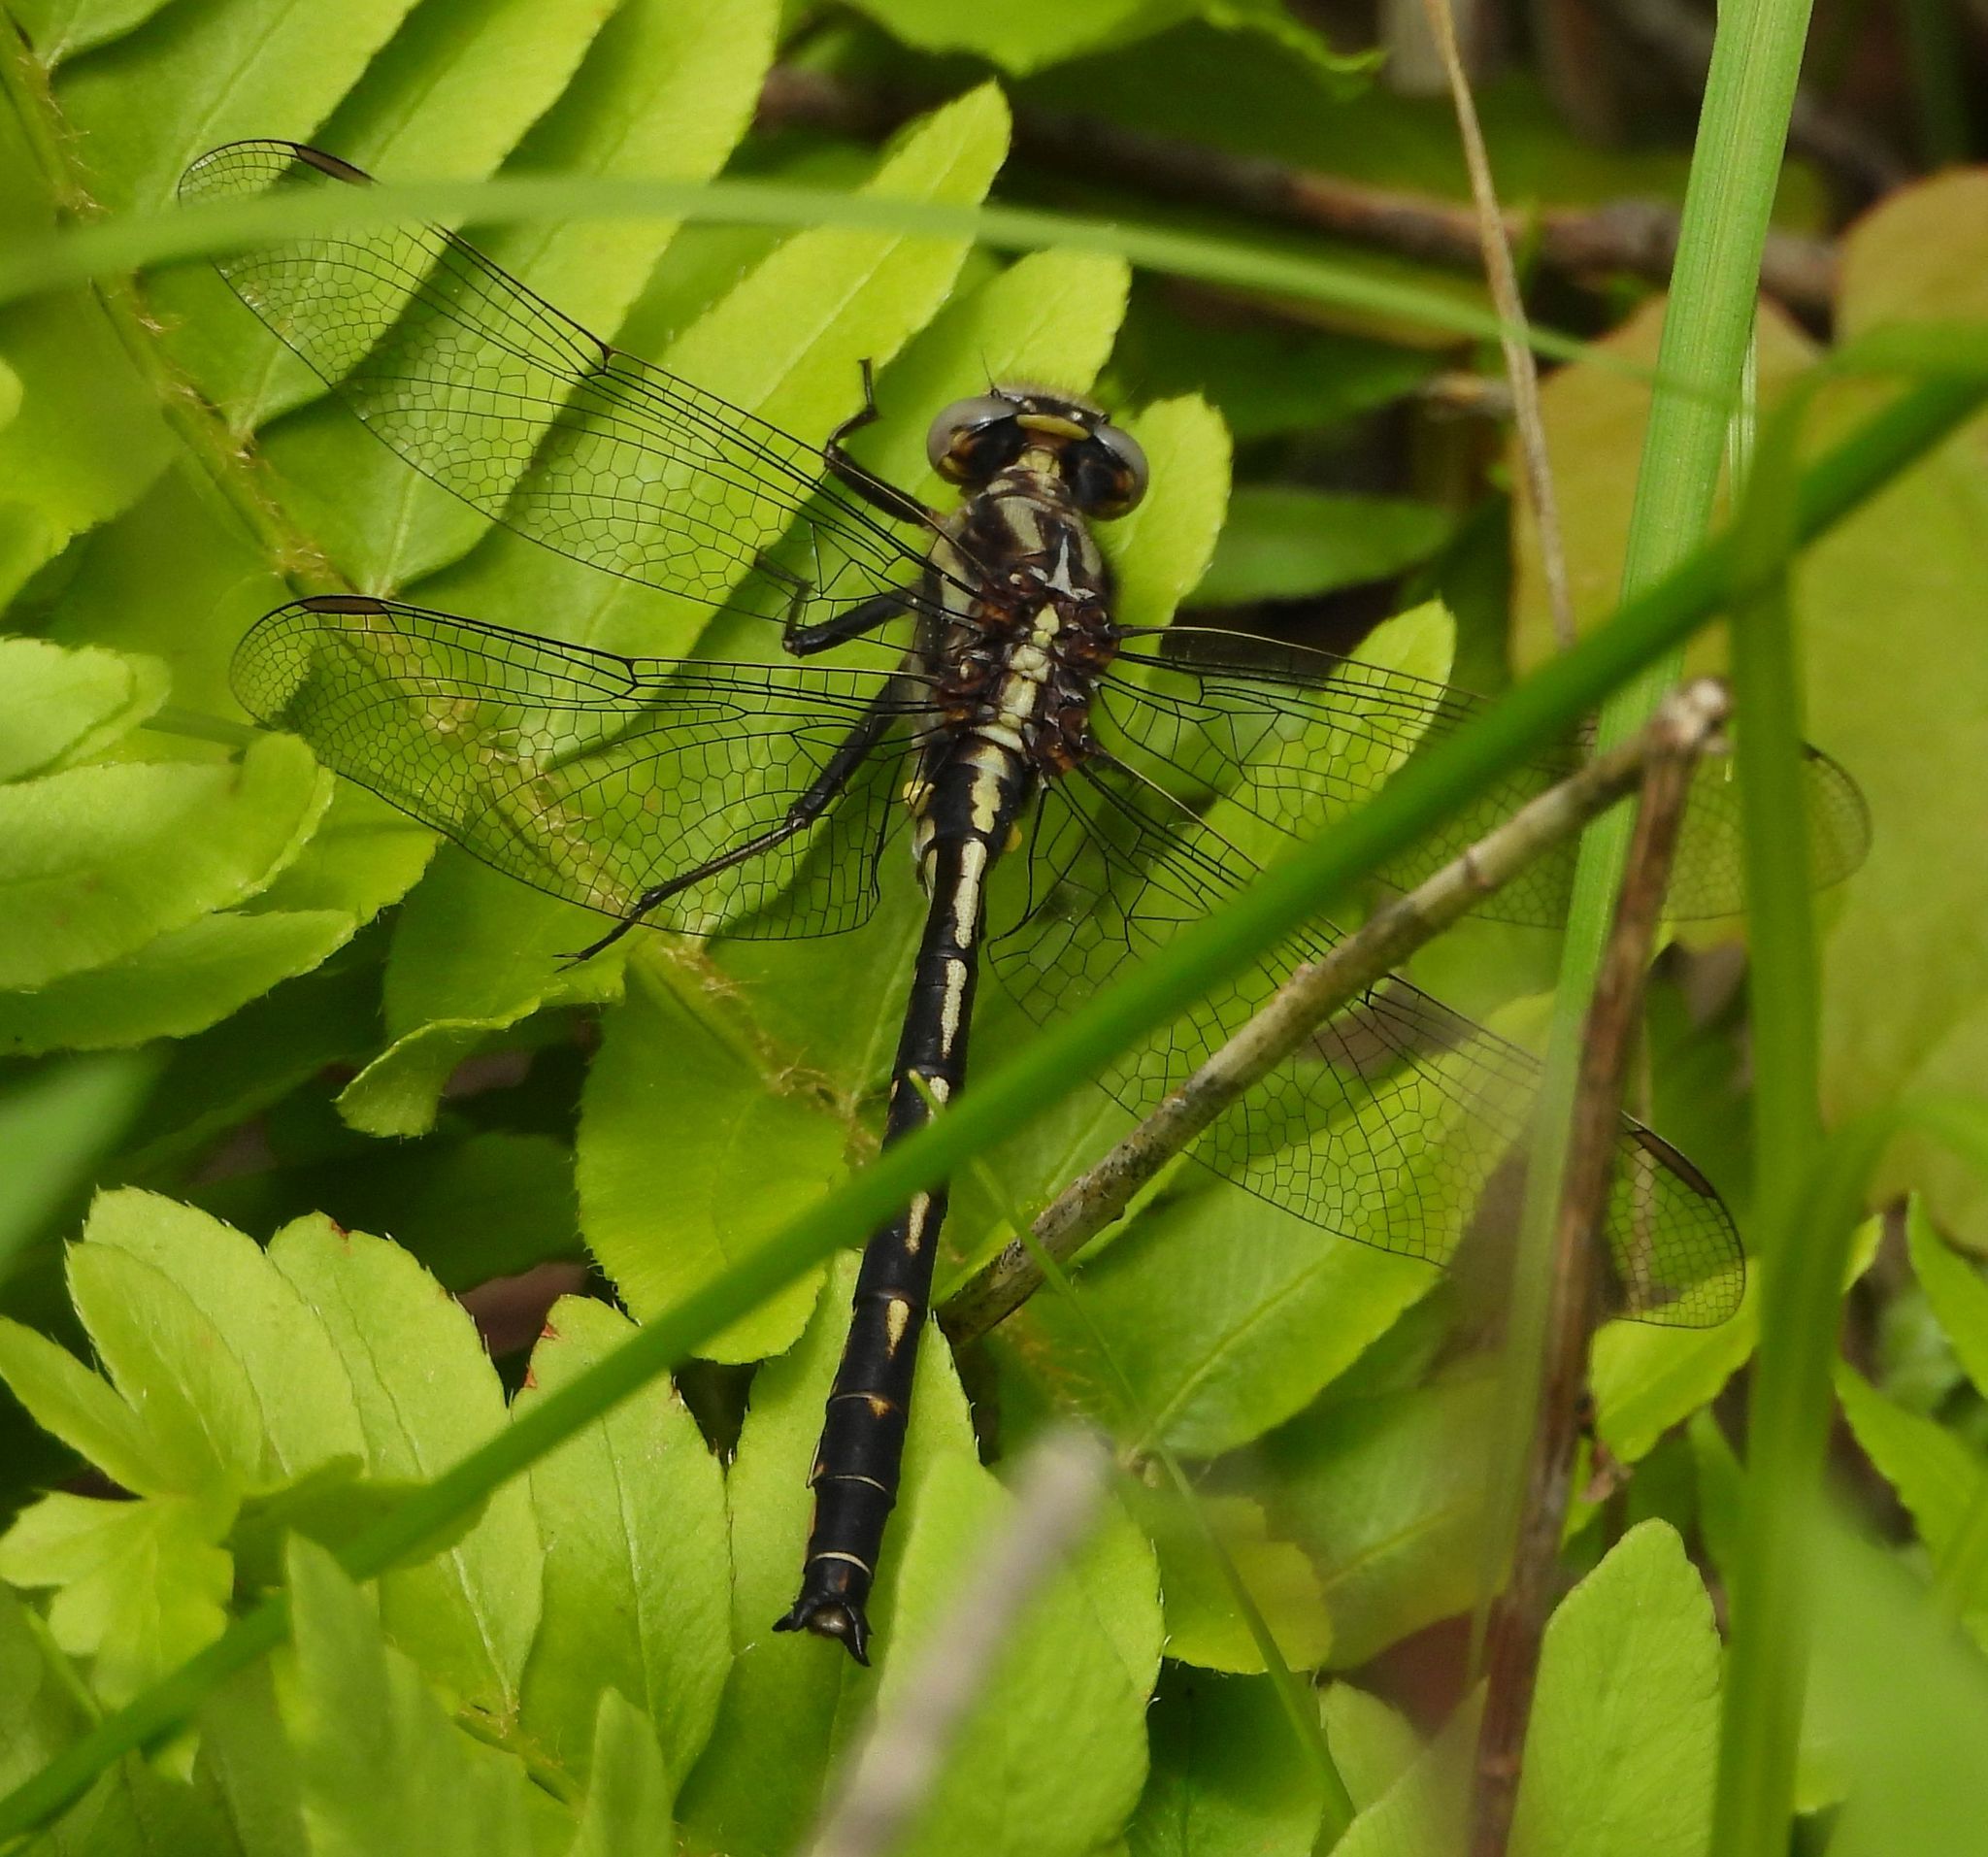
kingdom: Animalia
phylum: Arthropoda
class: Insecta
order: Odonata
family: Gomphidae
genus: Phanogomphus
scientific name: Phanogomphus spicatus
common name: Dusky clubtail
